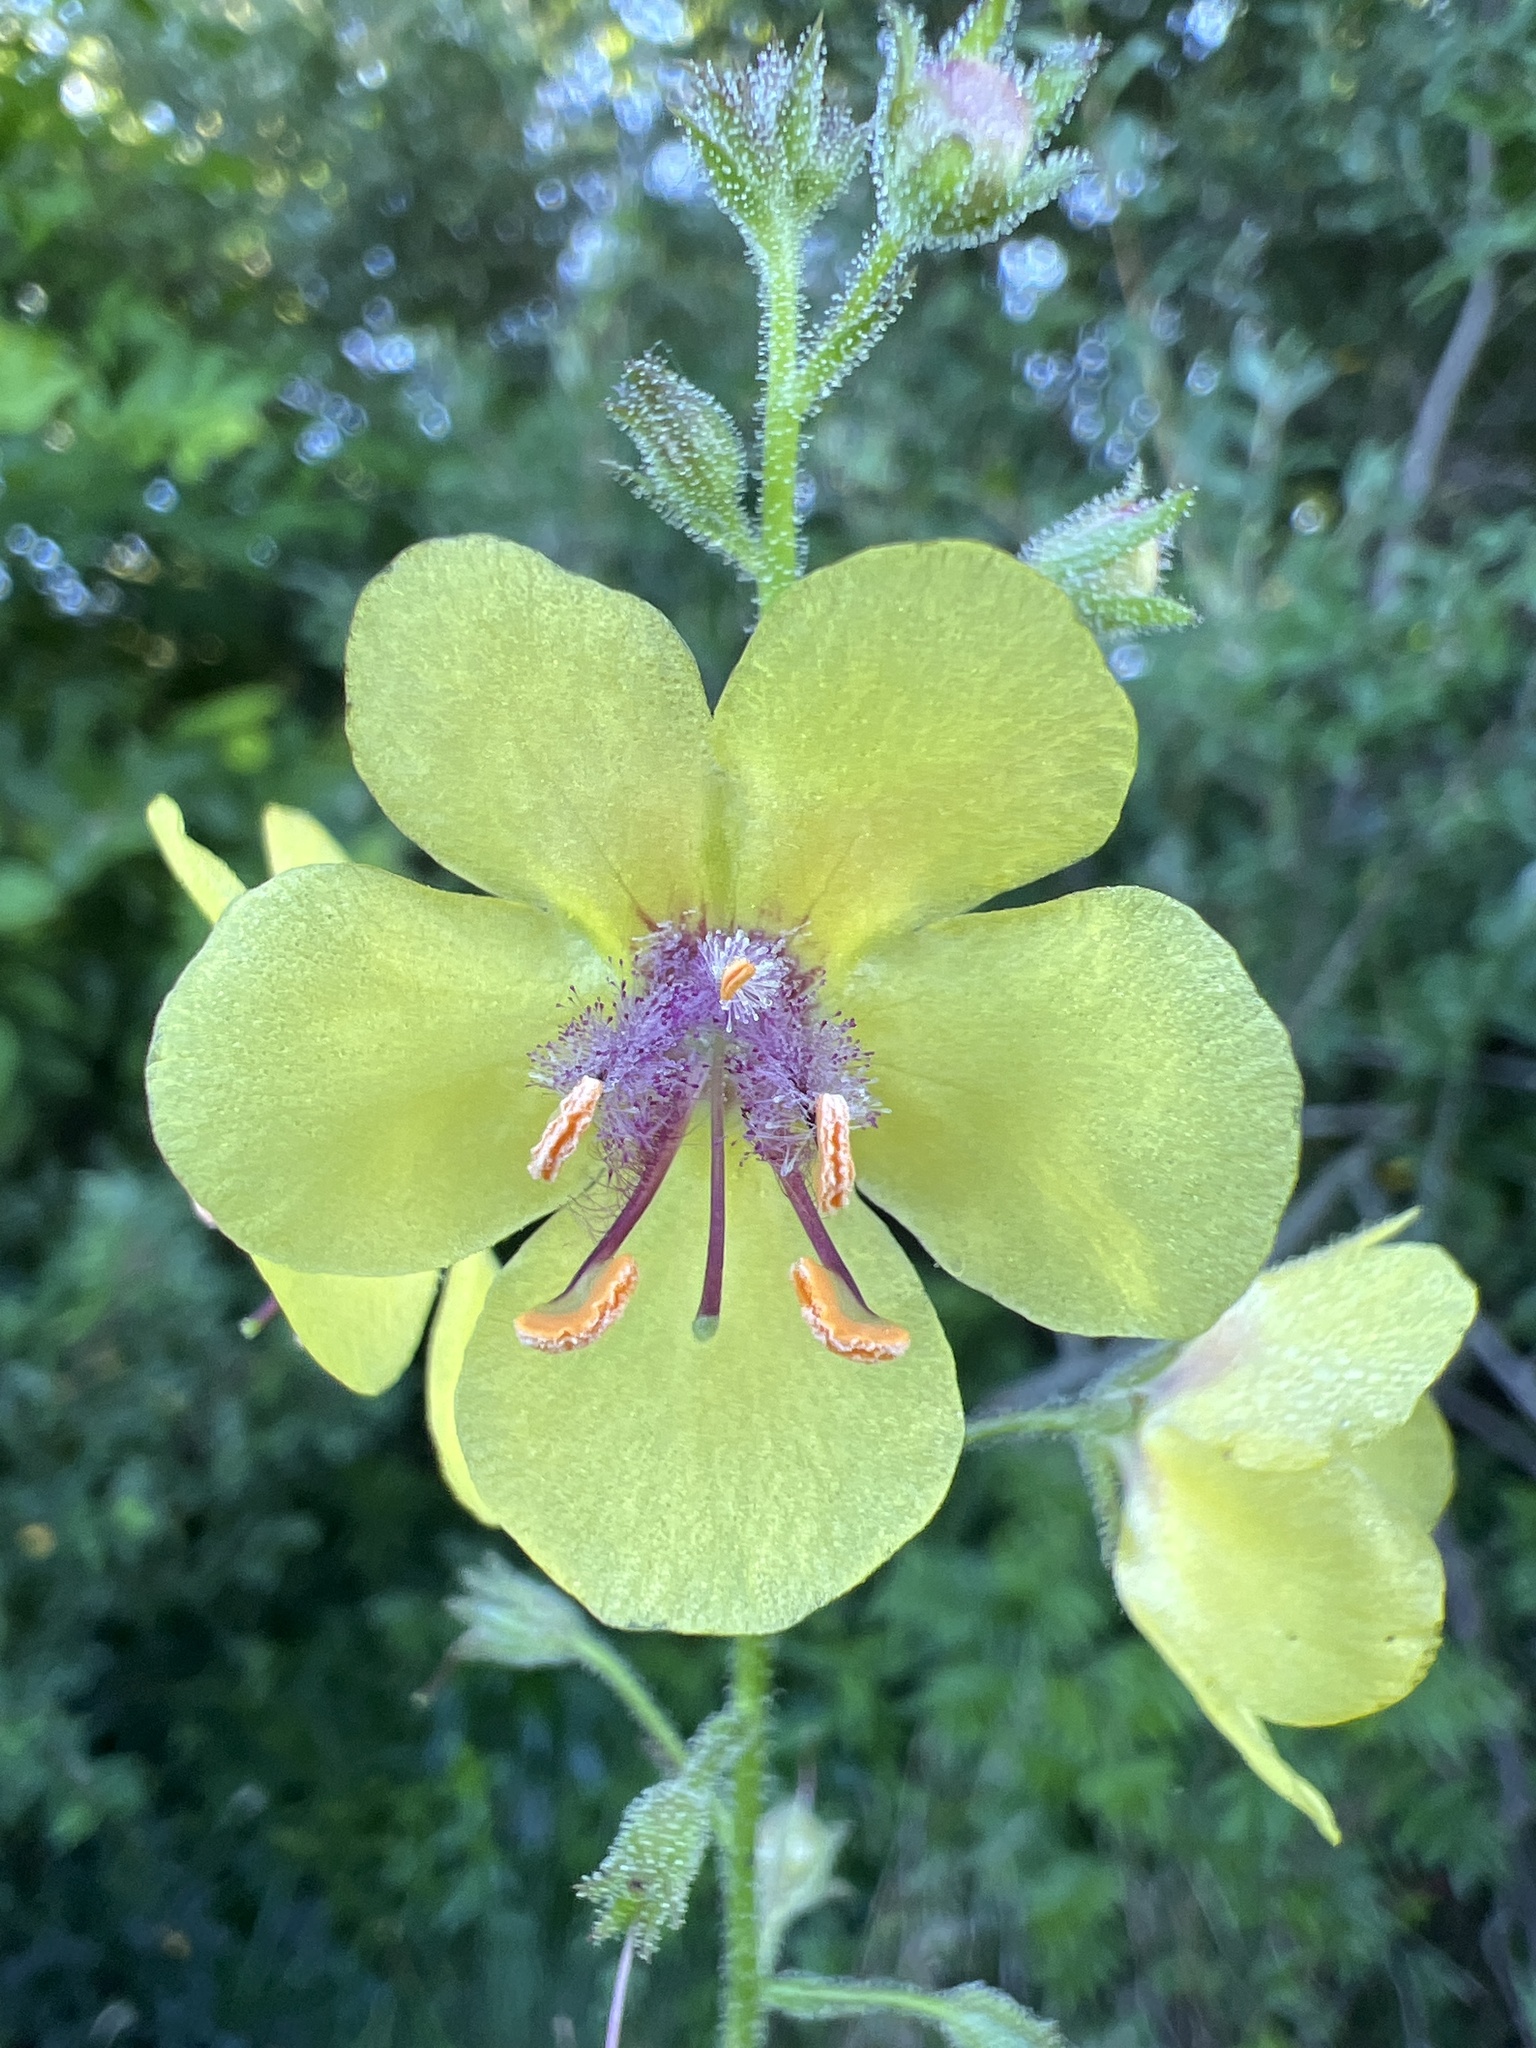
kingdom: Plantae
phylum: Tracheophyta
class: Magnoliopsida
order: Lamiales
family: Scrophulariaceae
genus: Verbascum
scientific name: Verbascum blattaria
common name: Moth mullein
